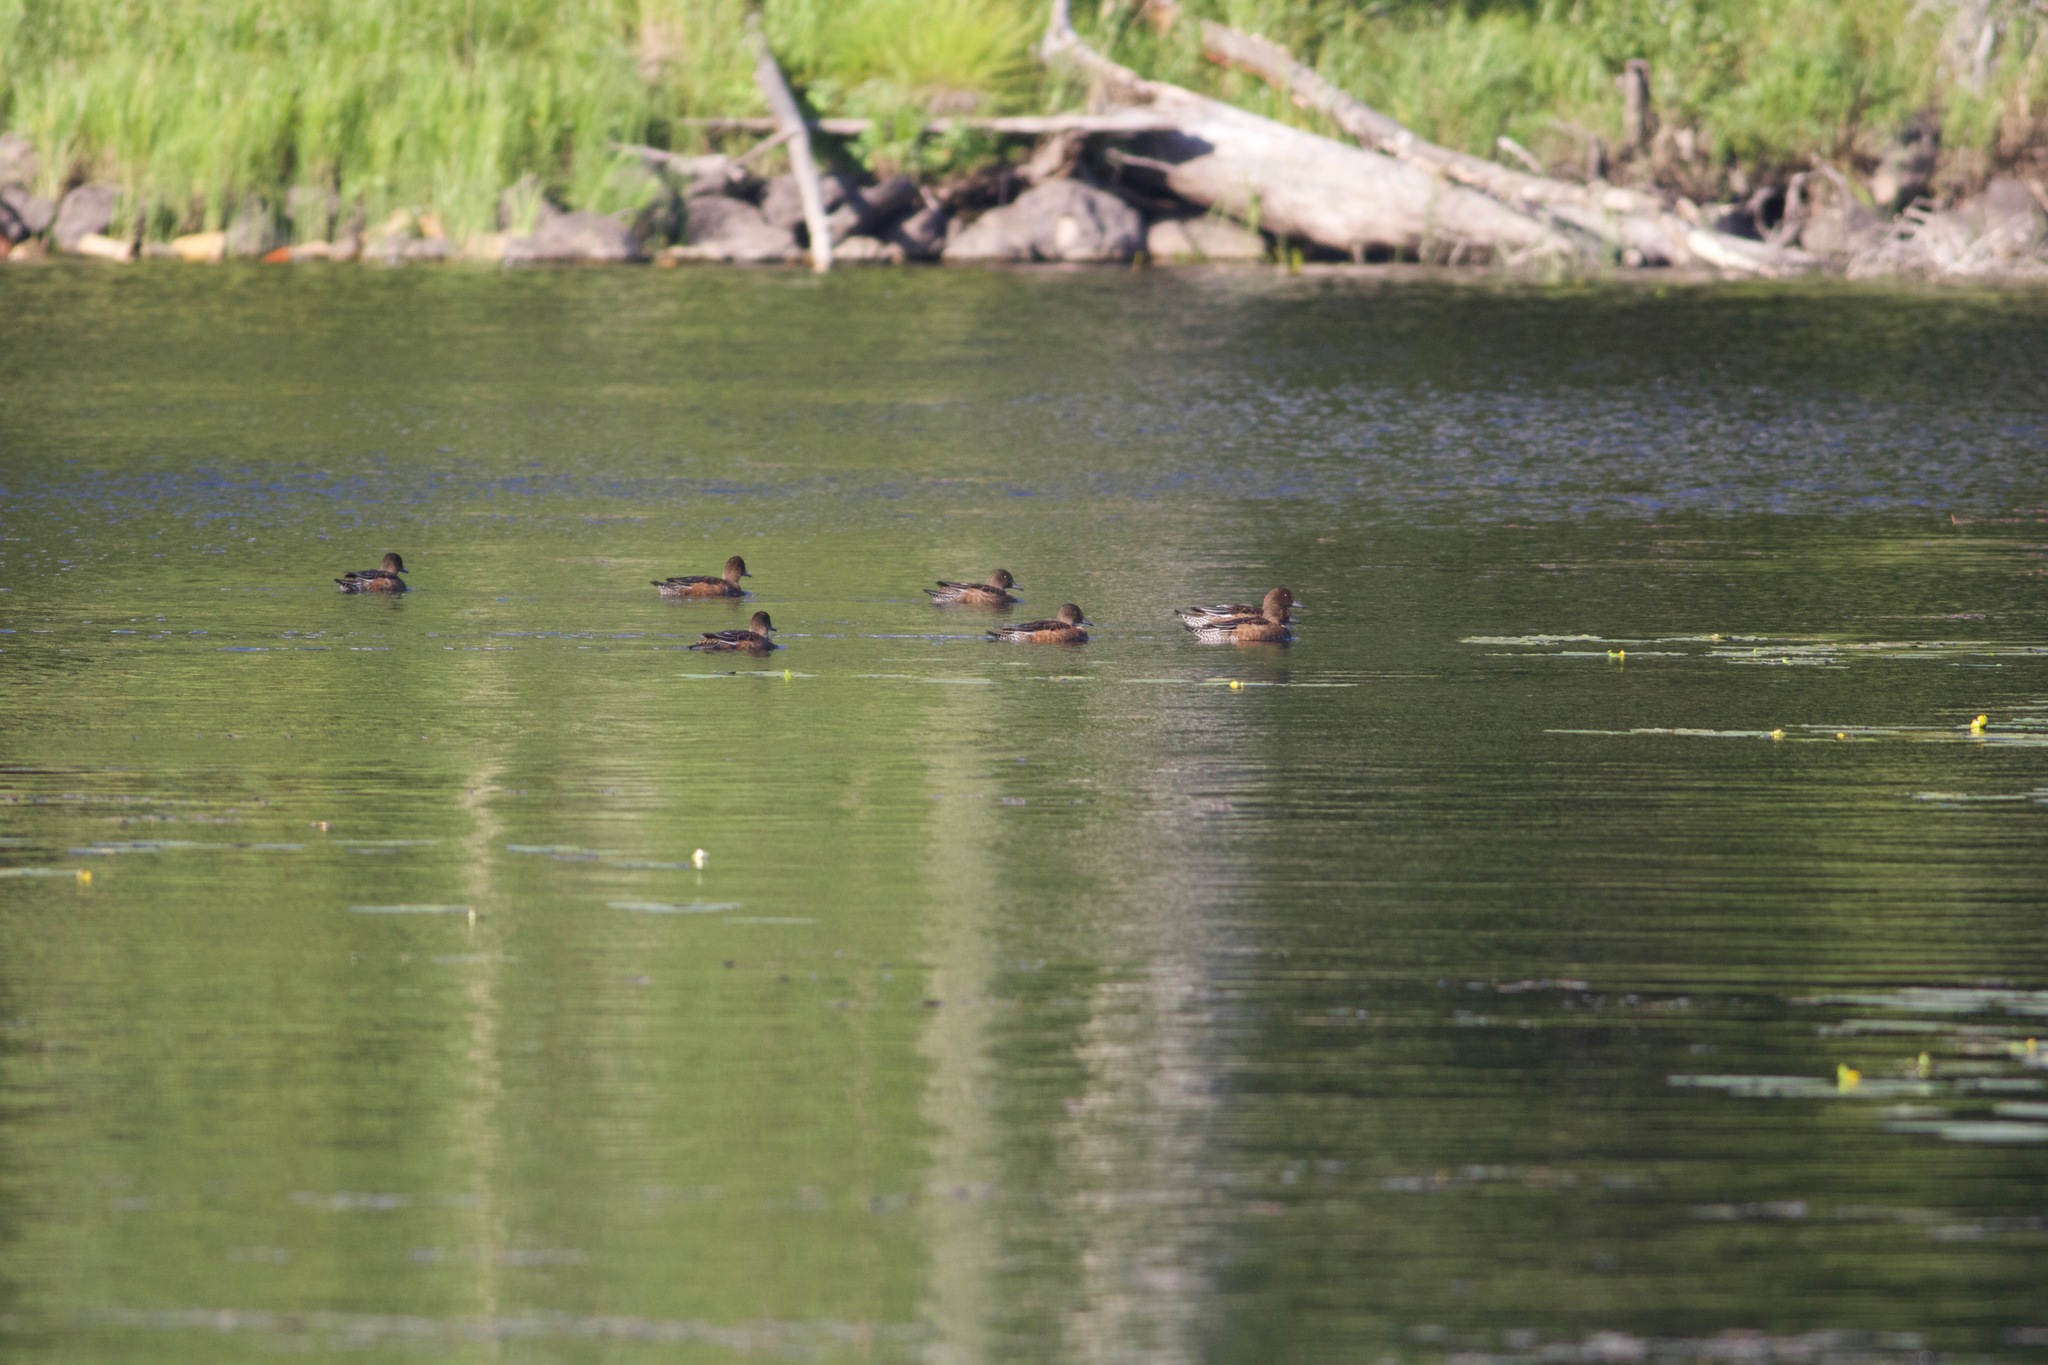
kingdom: Animalia
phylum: Chordata
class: Aves
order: Anseriformes
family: Anatidae
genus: Mareca
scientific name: Mareca penelope
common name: Eurasian wigeon
